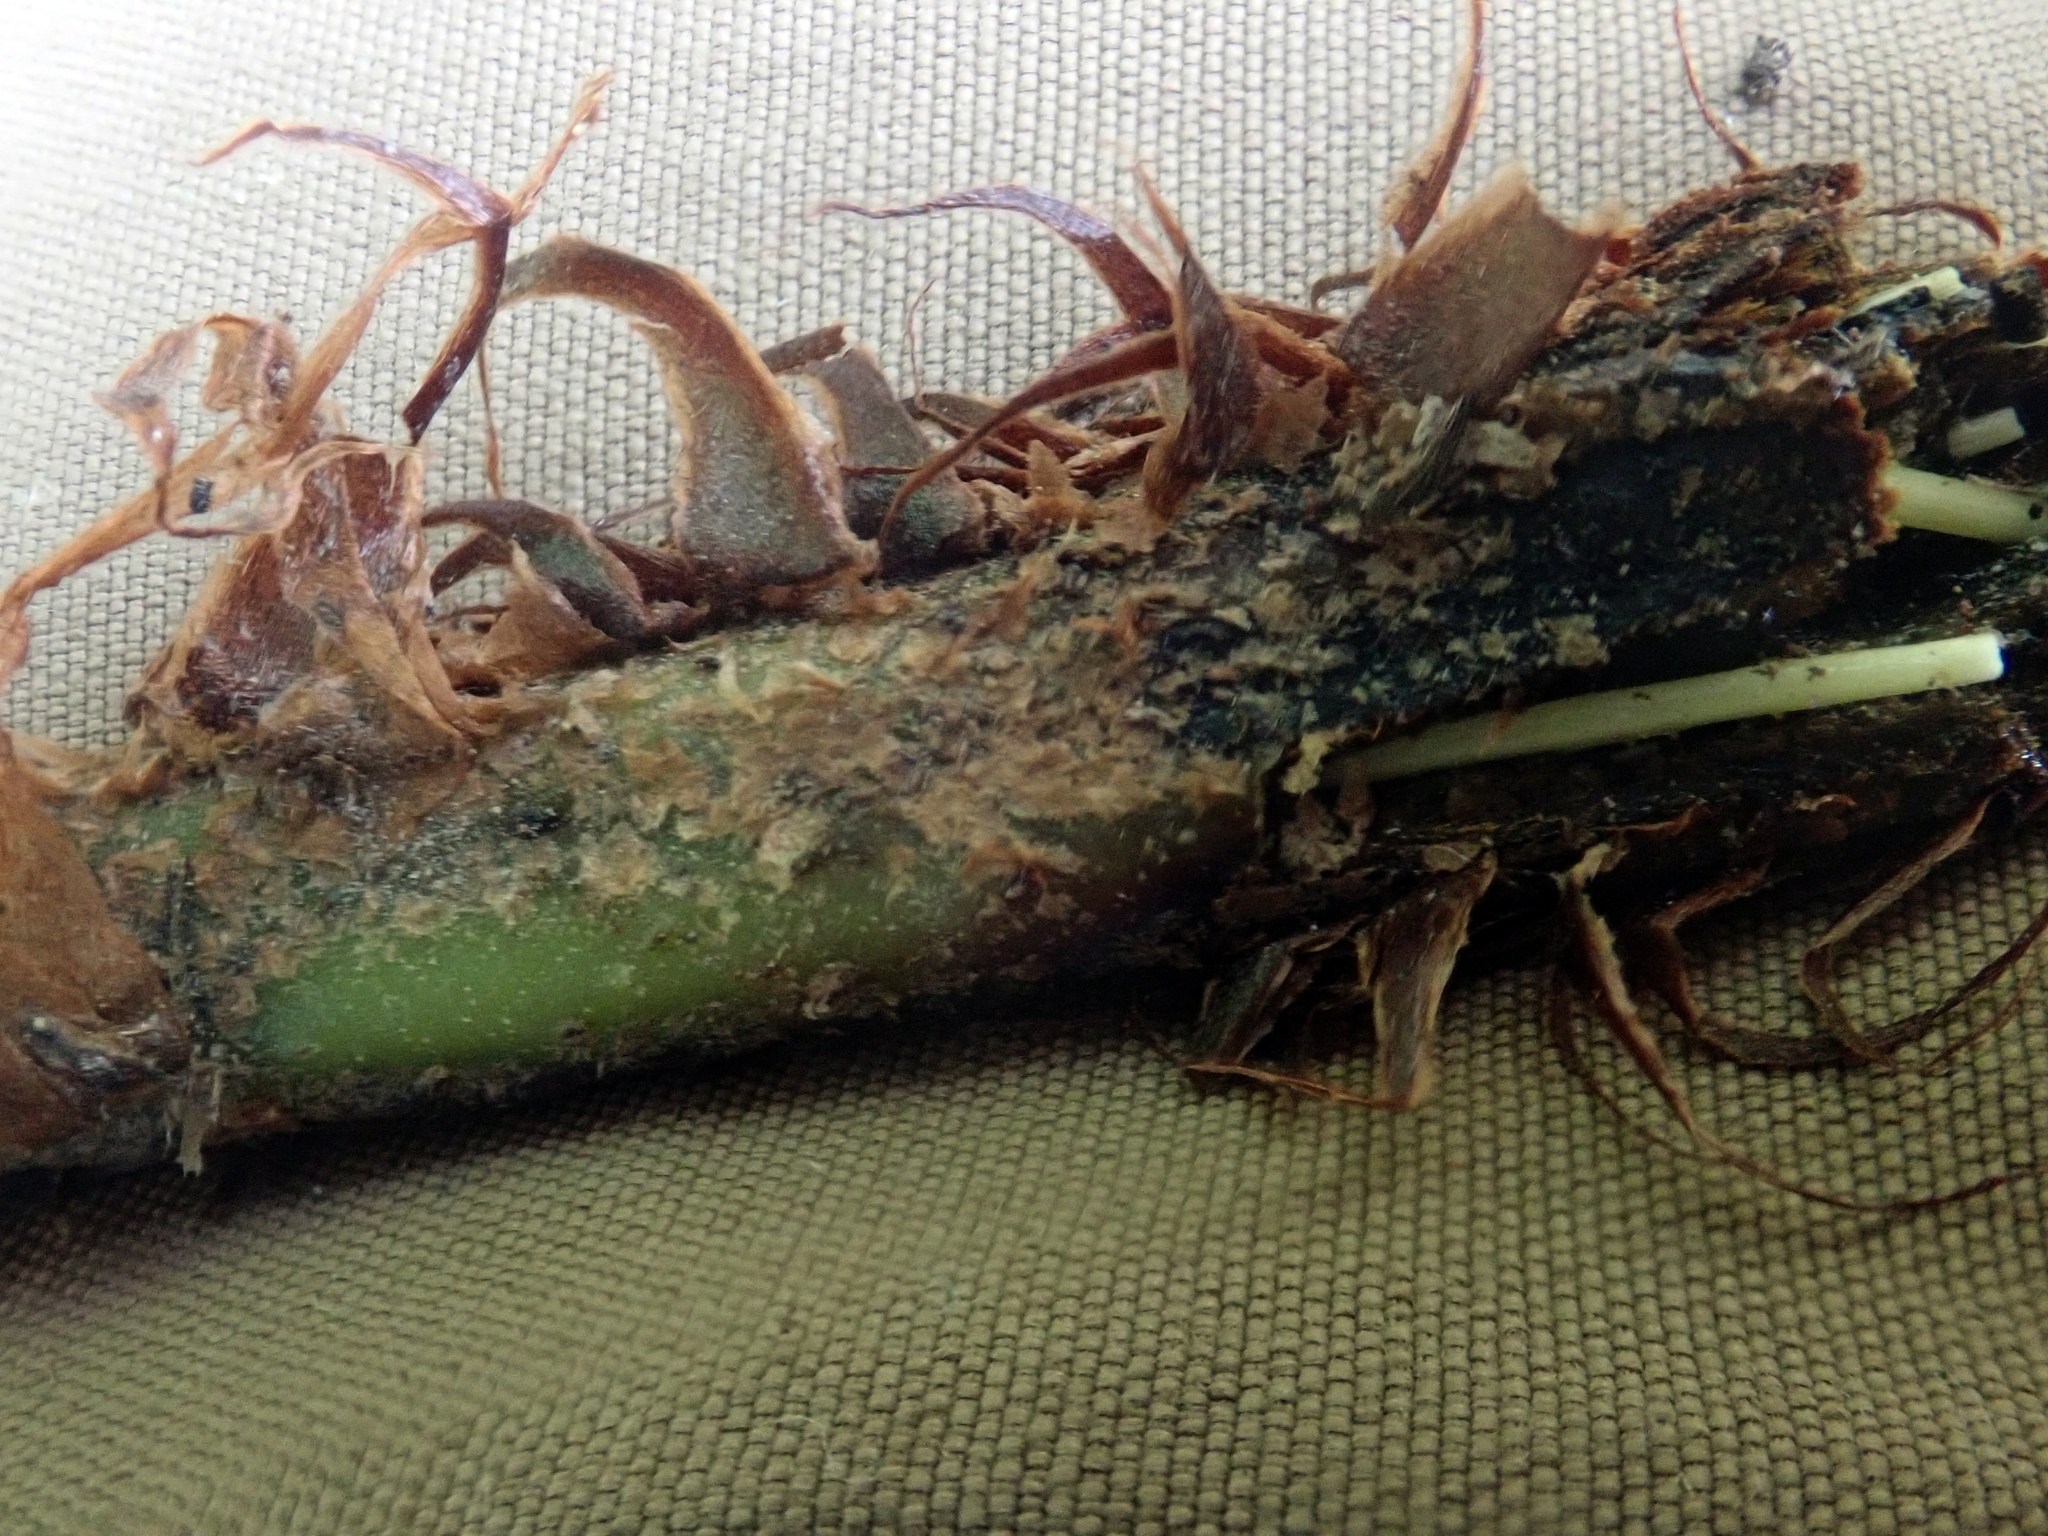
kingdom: Plantae
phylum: Tracheophyta
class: Polypodiopsida
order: Polypodiales
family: Blechnaceae
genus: Parablechnum
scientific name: Parablechnum triangularifolium
